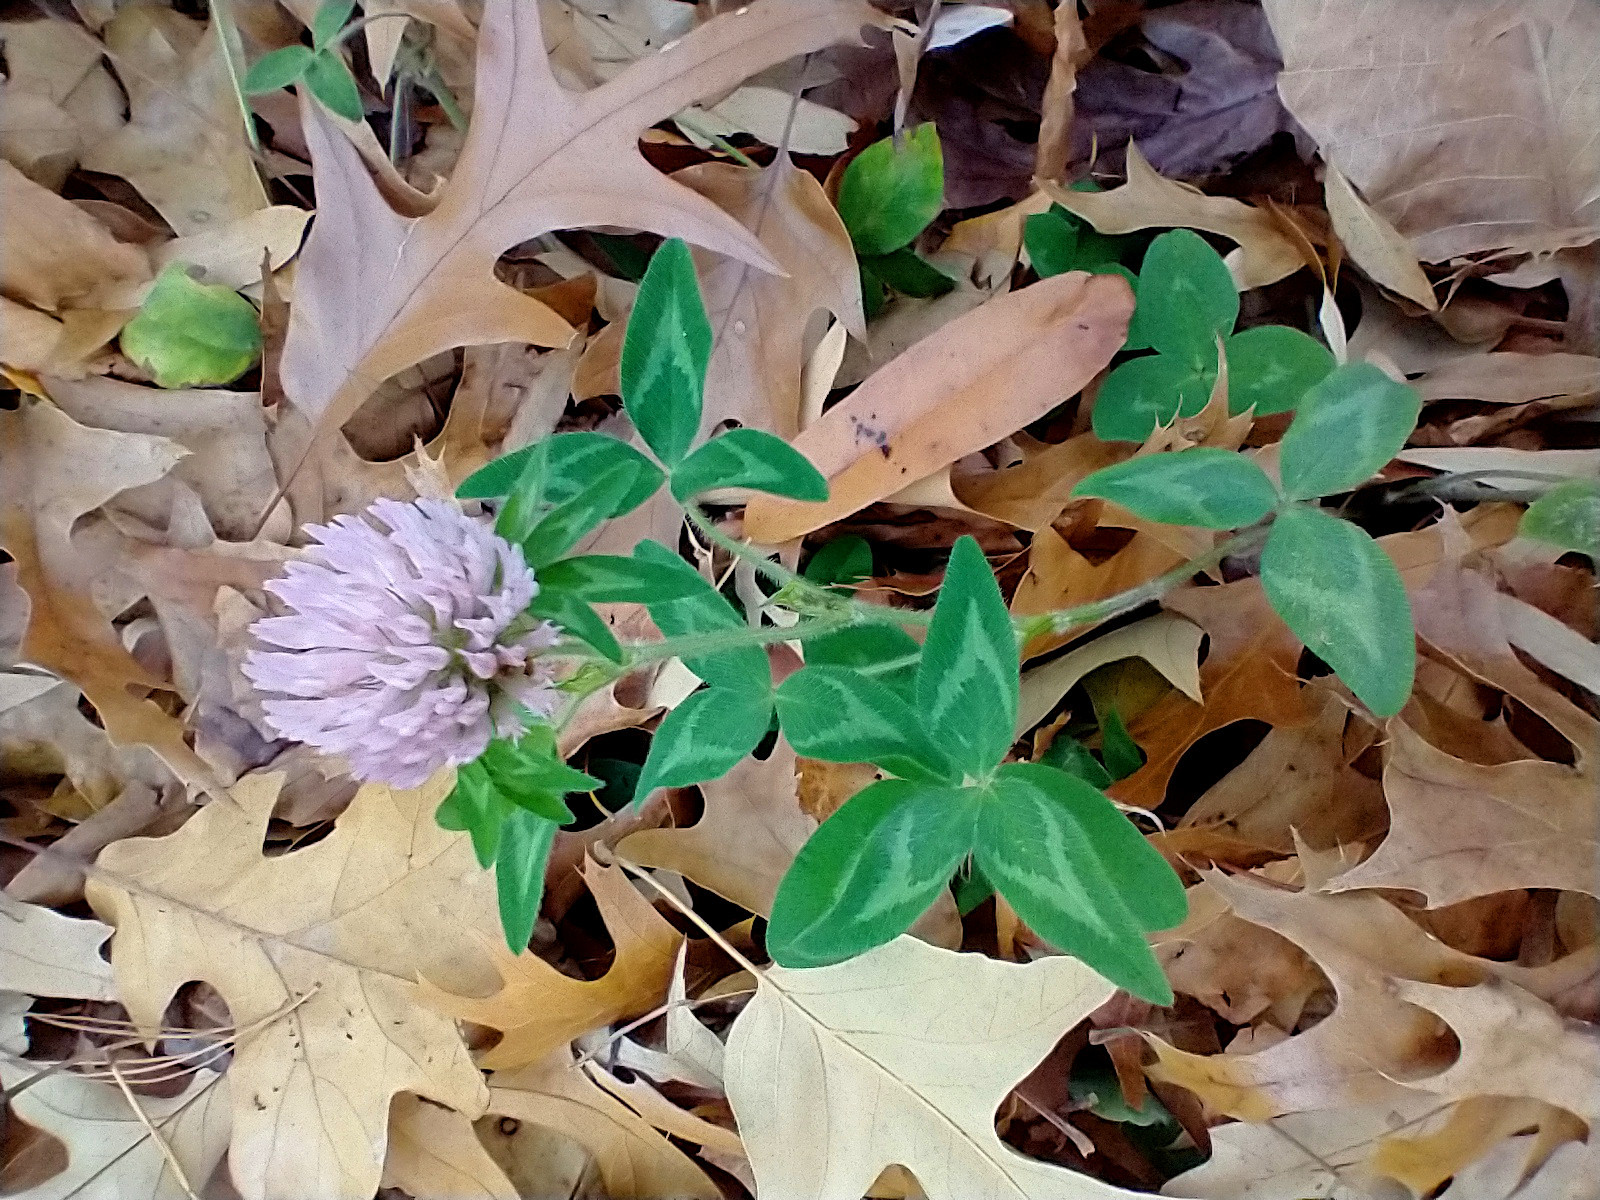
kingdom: Plantae
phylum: Tracheophyta
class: Magnoliopsida
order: Fabales
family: Fabaceae
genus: Trifolium
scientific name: Trifolium pratense
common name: Red clover
